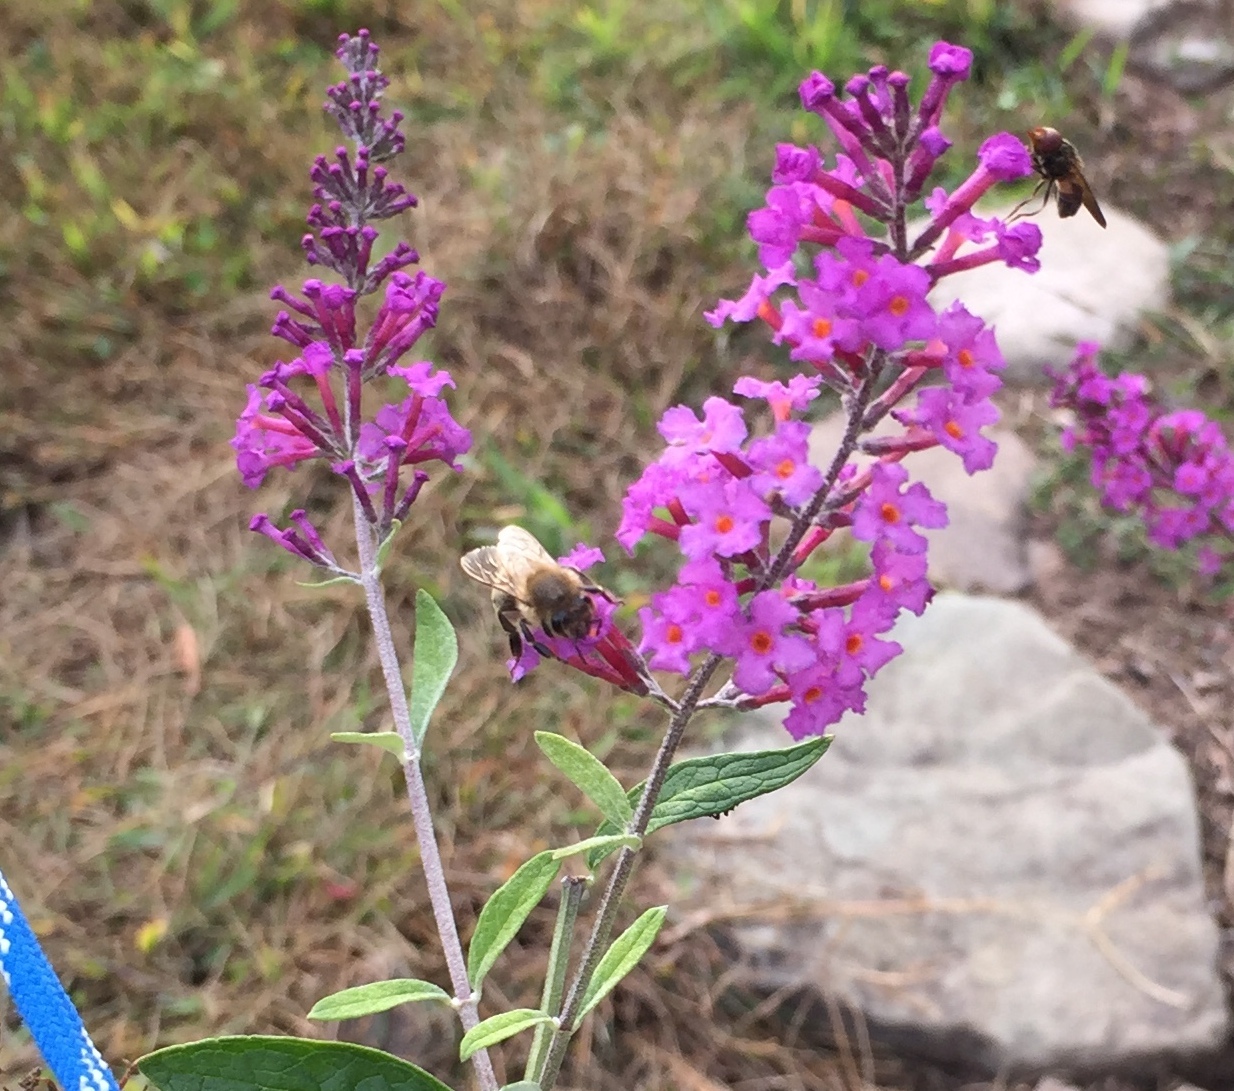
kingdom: Animalia
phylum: Arthropoda
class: Insecta
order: Hymenoptera
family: Apidae
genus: Apis
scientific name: Apis mellifera
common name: Honey bee
